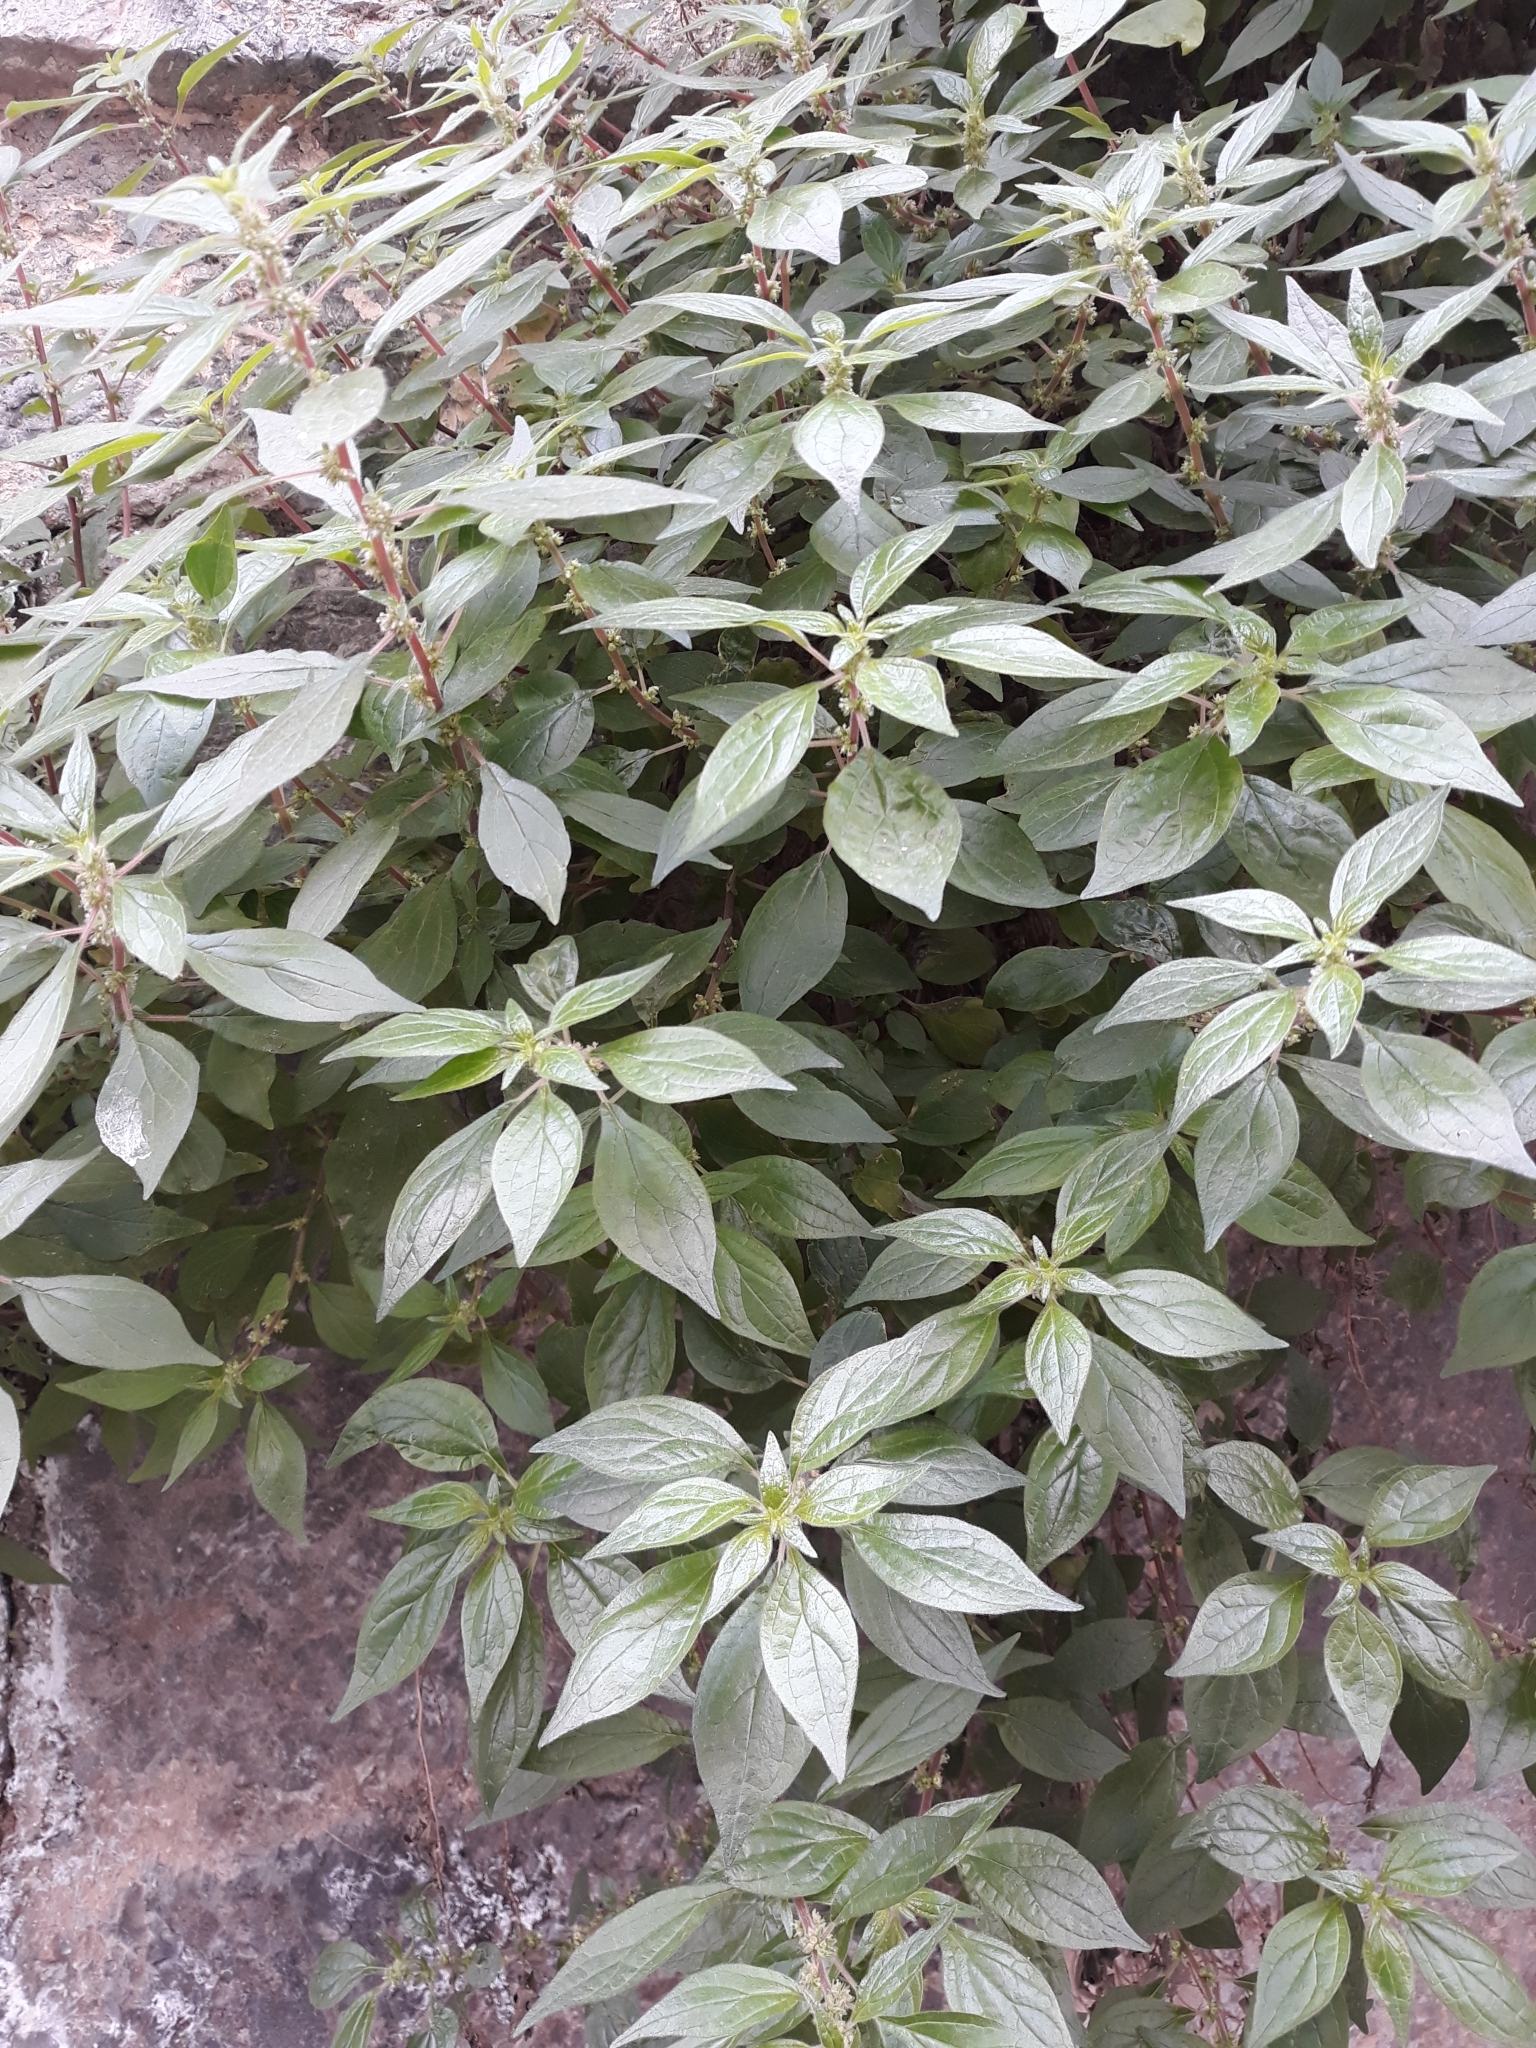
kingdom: Plantae
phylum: Tracheophyta
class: Magnoliopsida
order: Rosales
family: Urticaceae
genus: Parietaria
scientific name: Parietaria judaica
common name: Pellitory-of-the-wall
